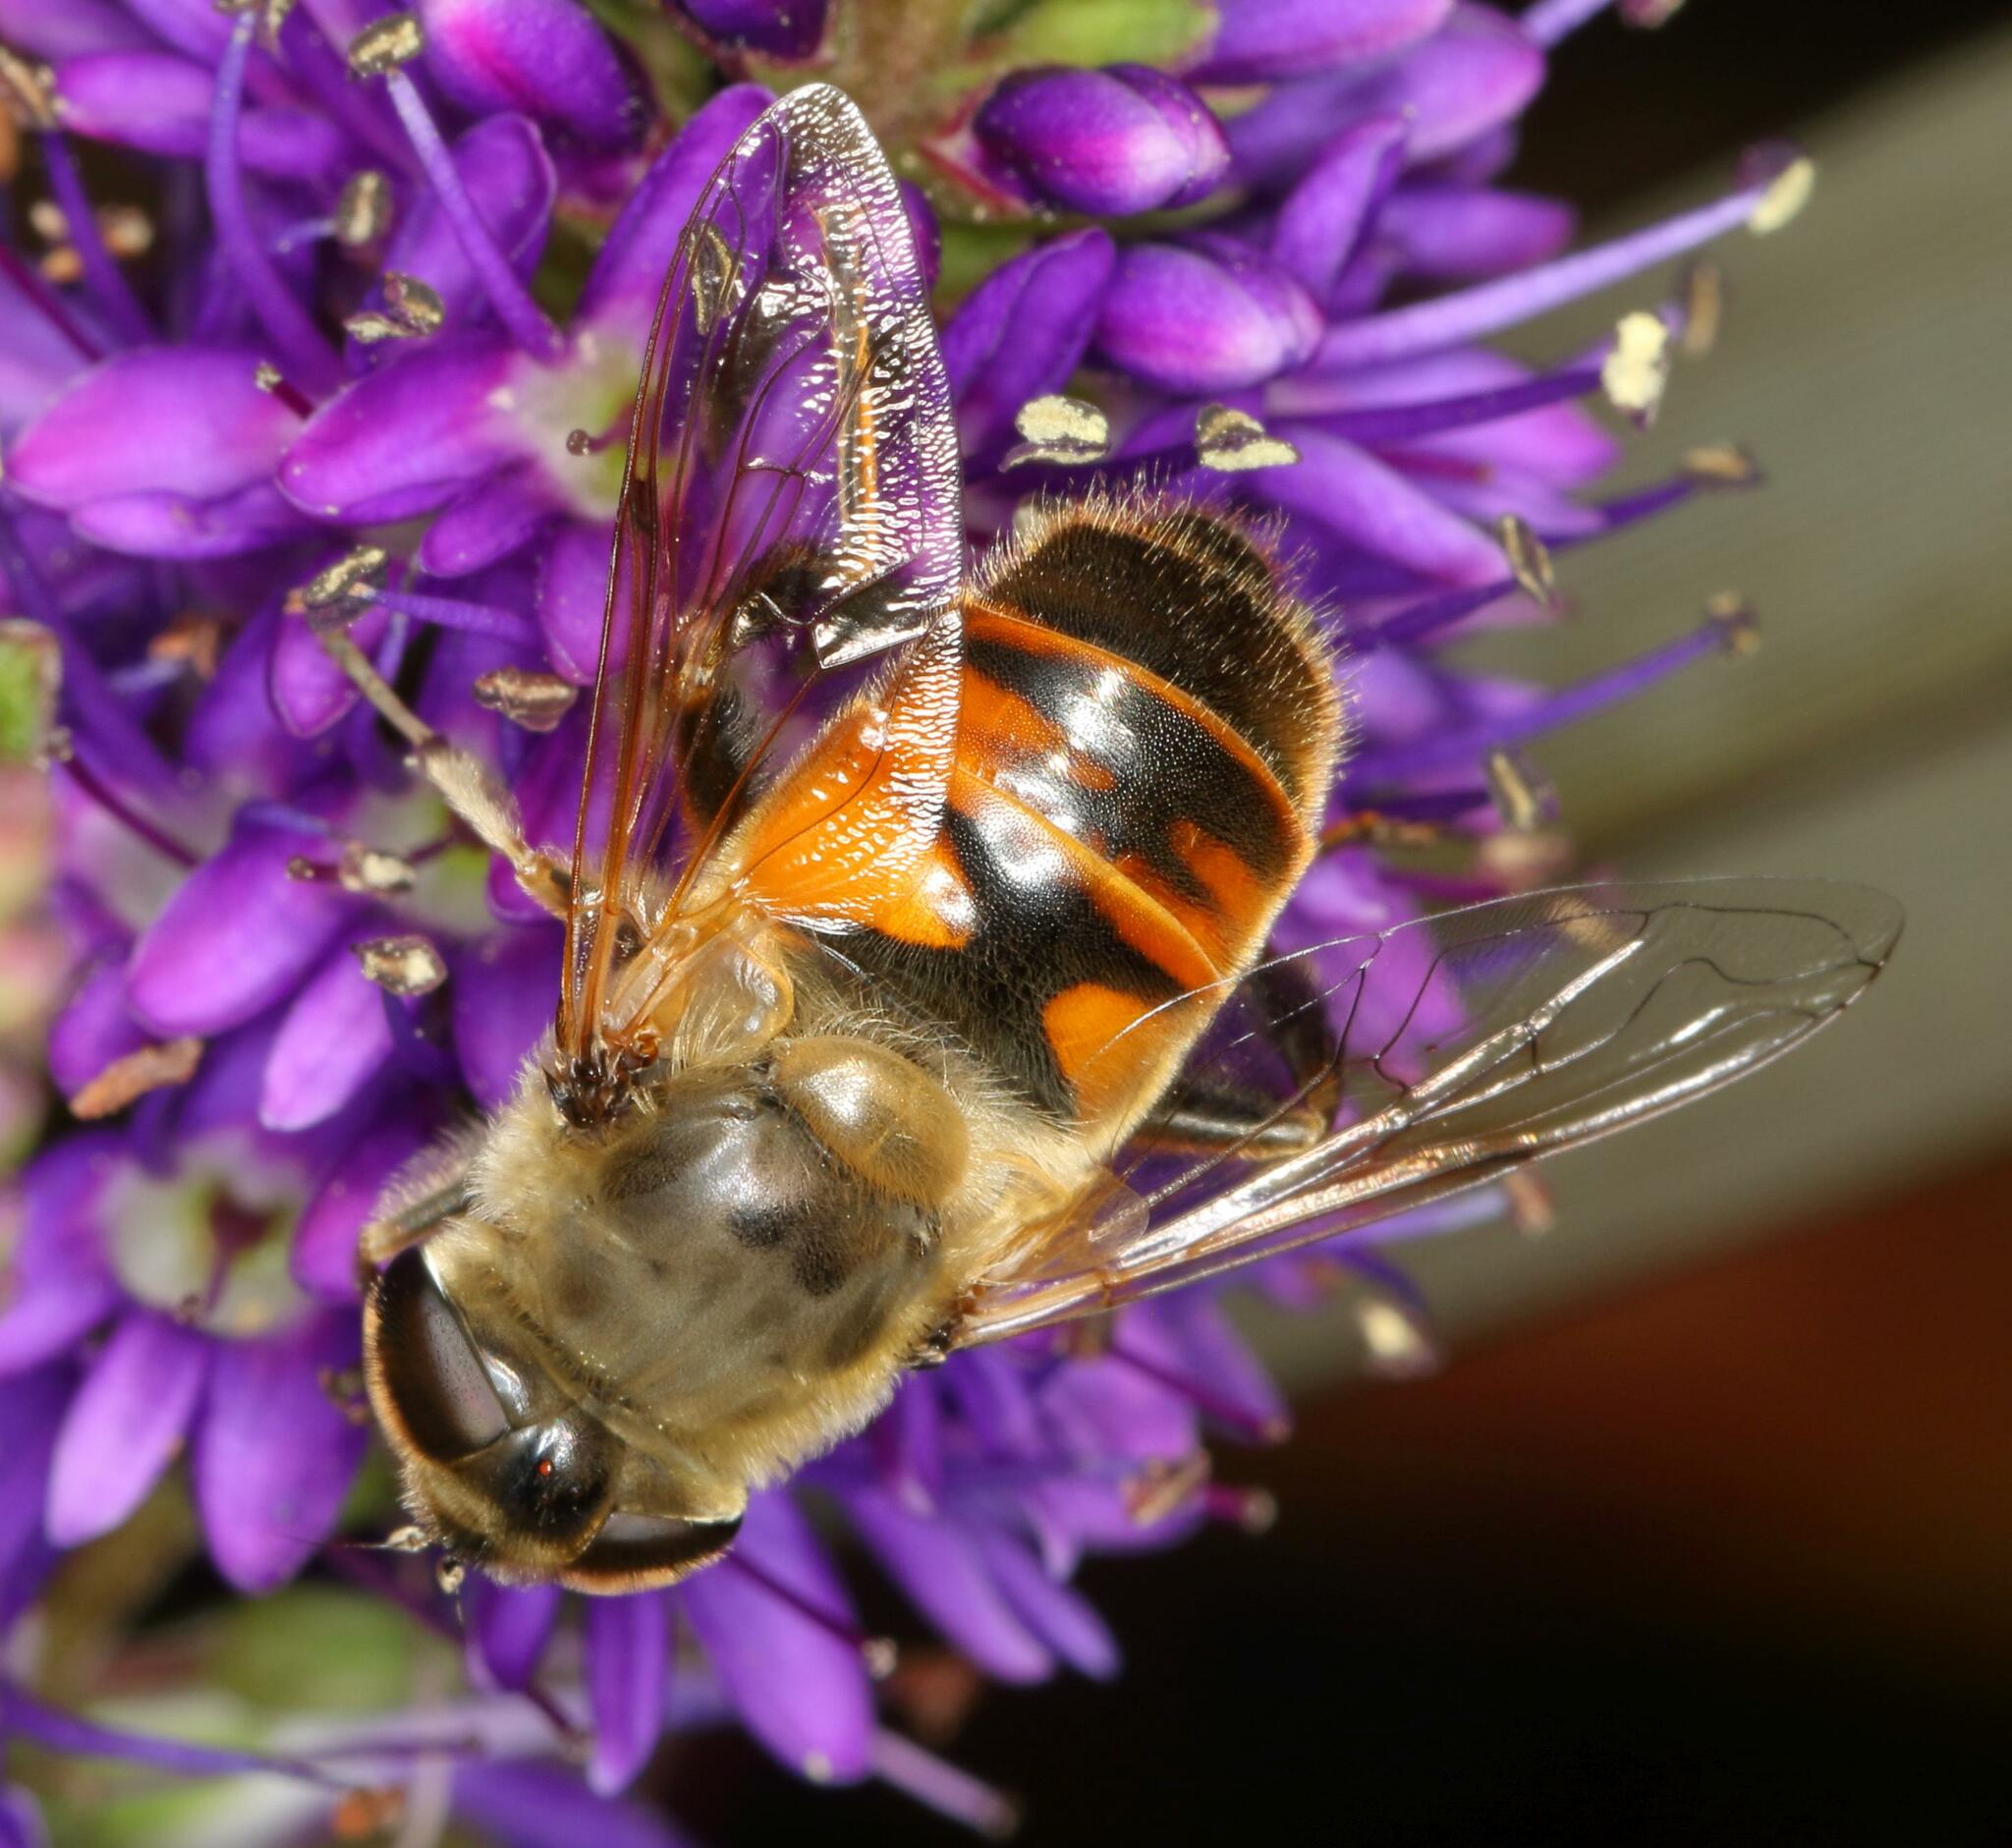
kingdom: Animalia
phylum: Arthropoda
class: Insecta
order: Diptera
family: Syrphidae
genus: Eristalis
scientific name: Eristalis tenax
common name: Drone fly
